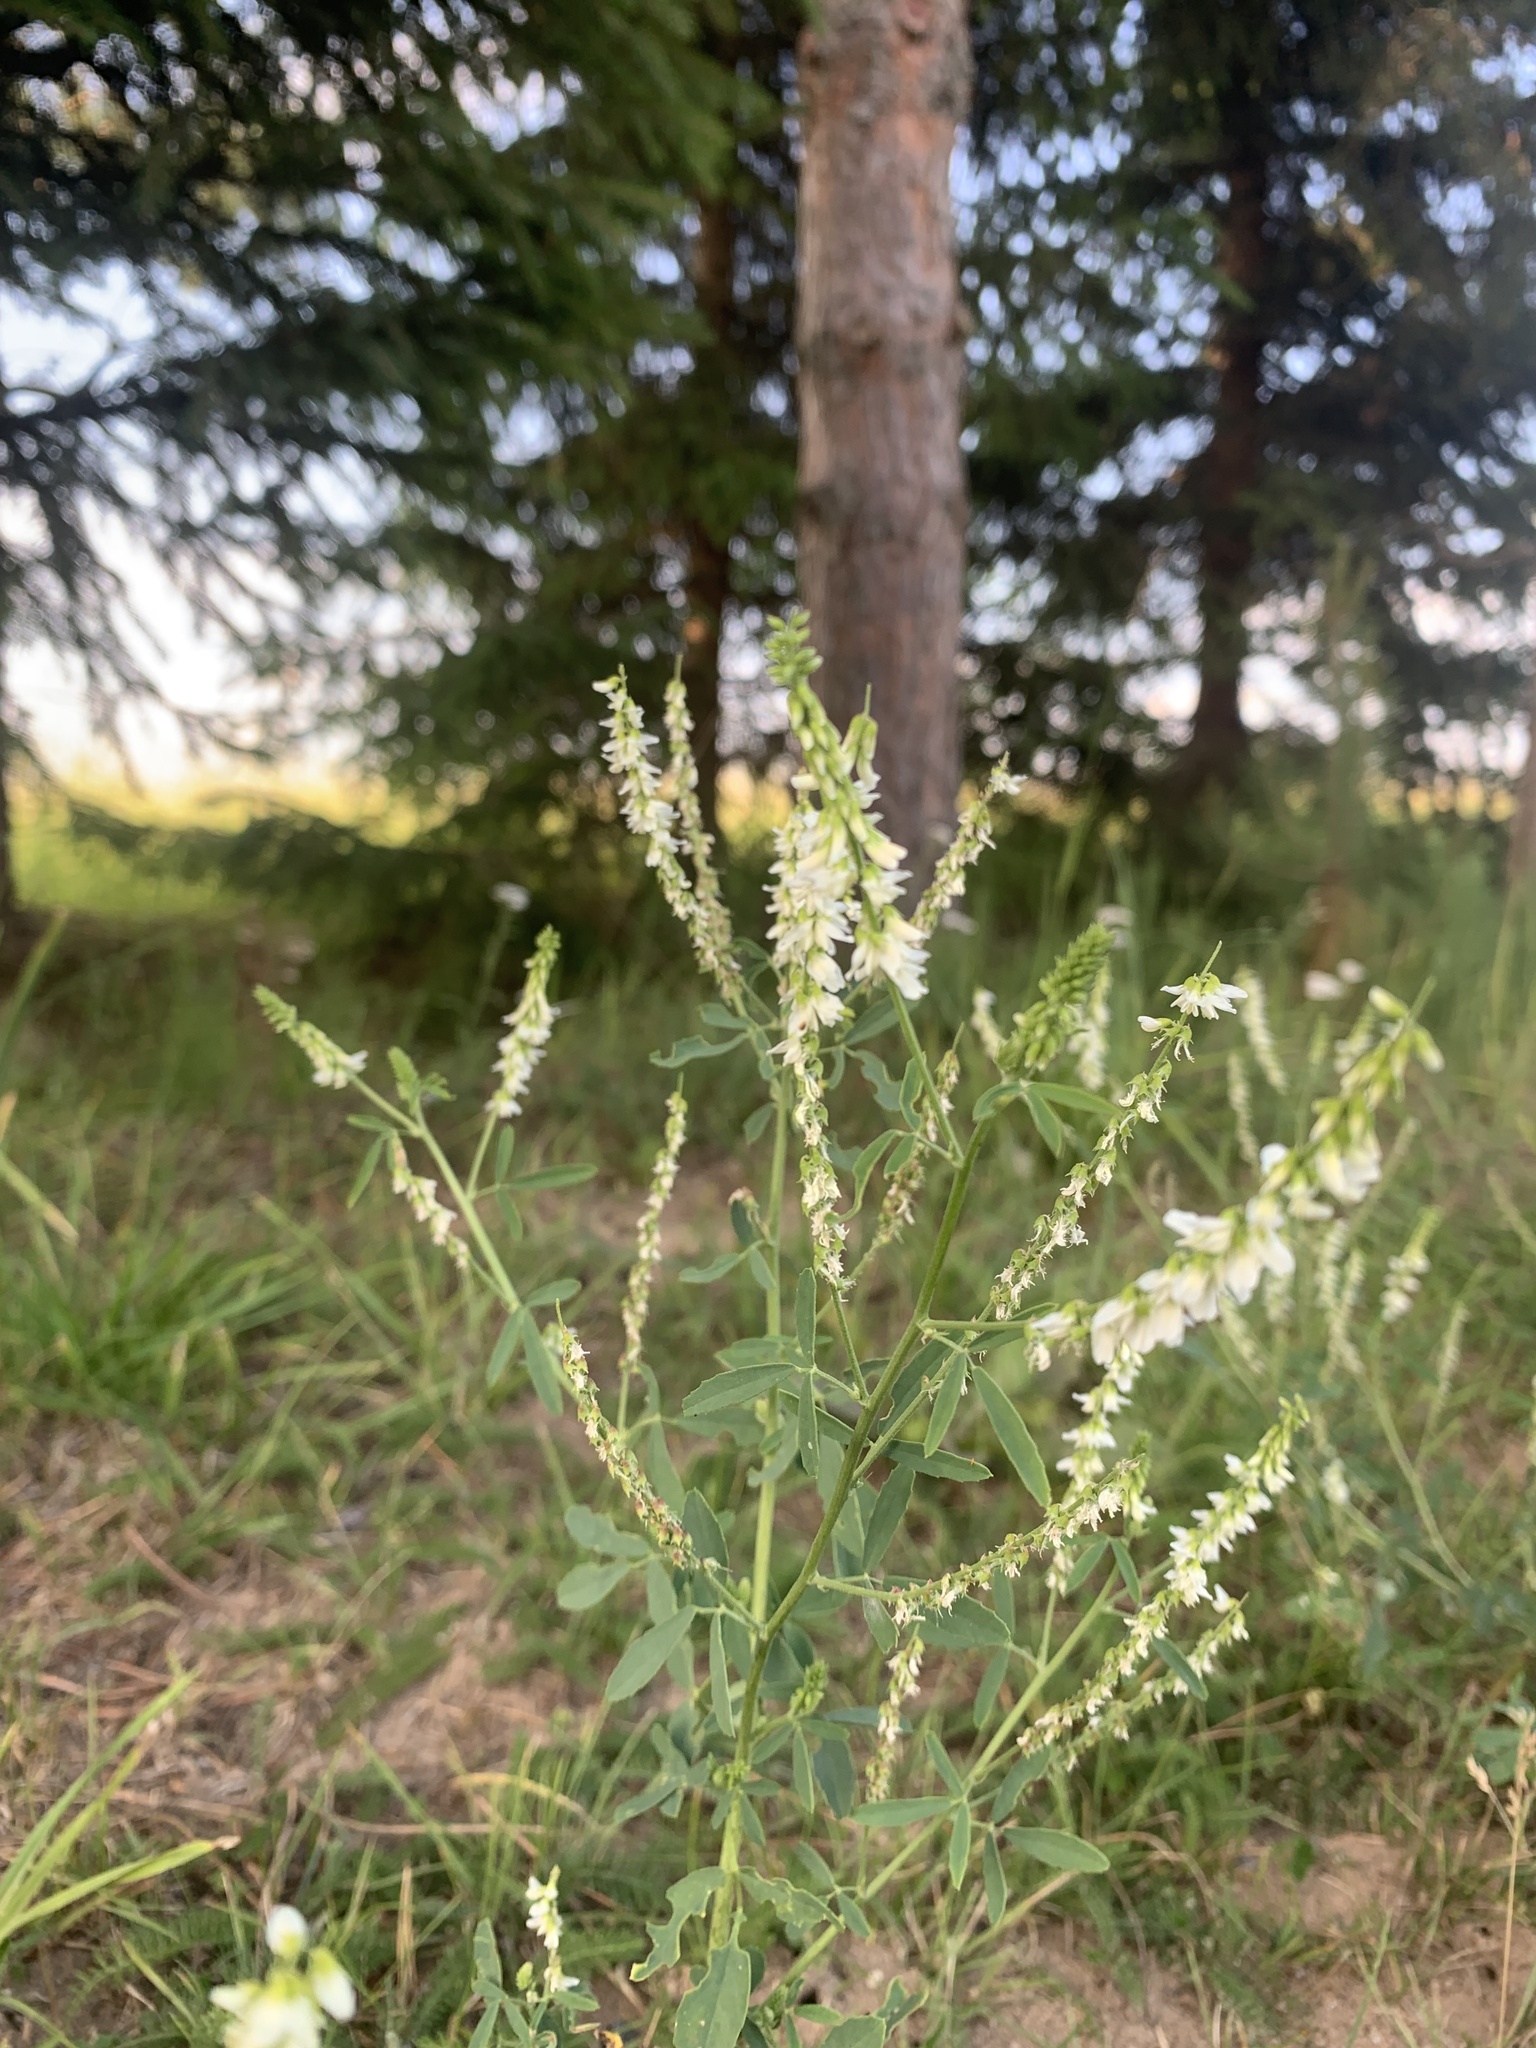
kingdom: Plantae
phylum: Tracheophyta
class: Magnoliopsida
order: Fabales
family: Fabaceae
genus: Melilotus
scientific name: Melilotus albus
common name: White melilot
